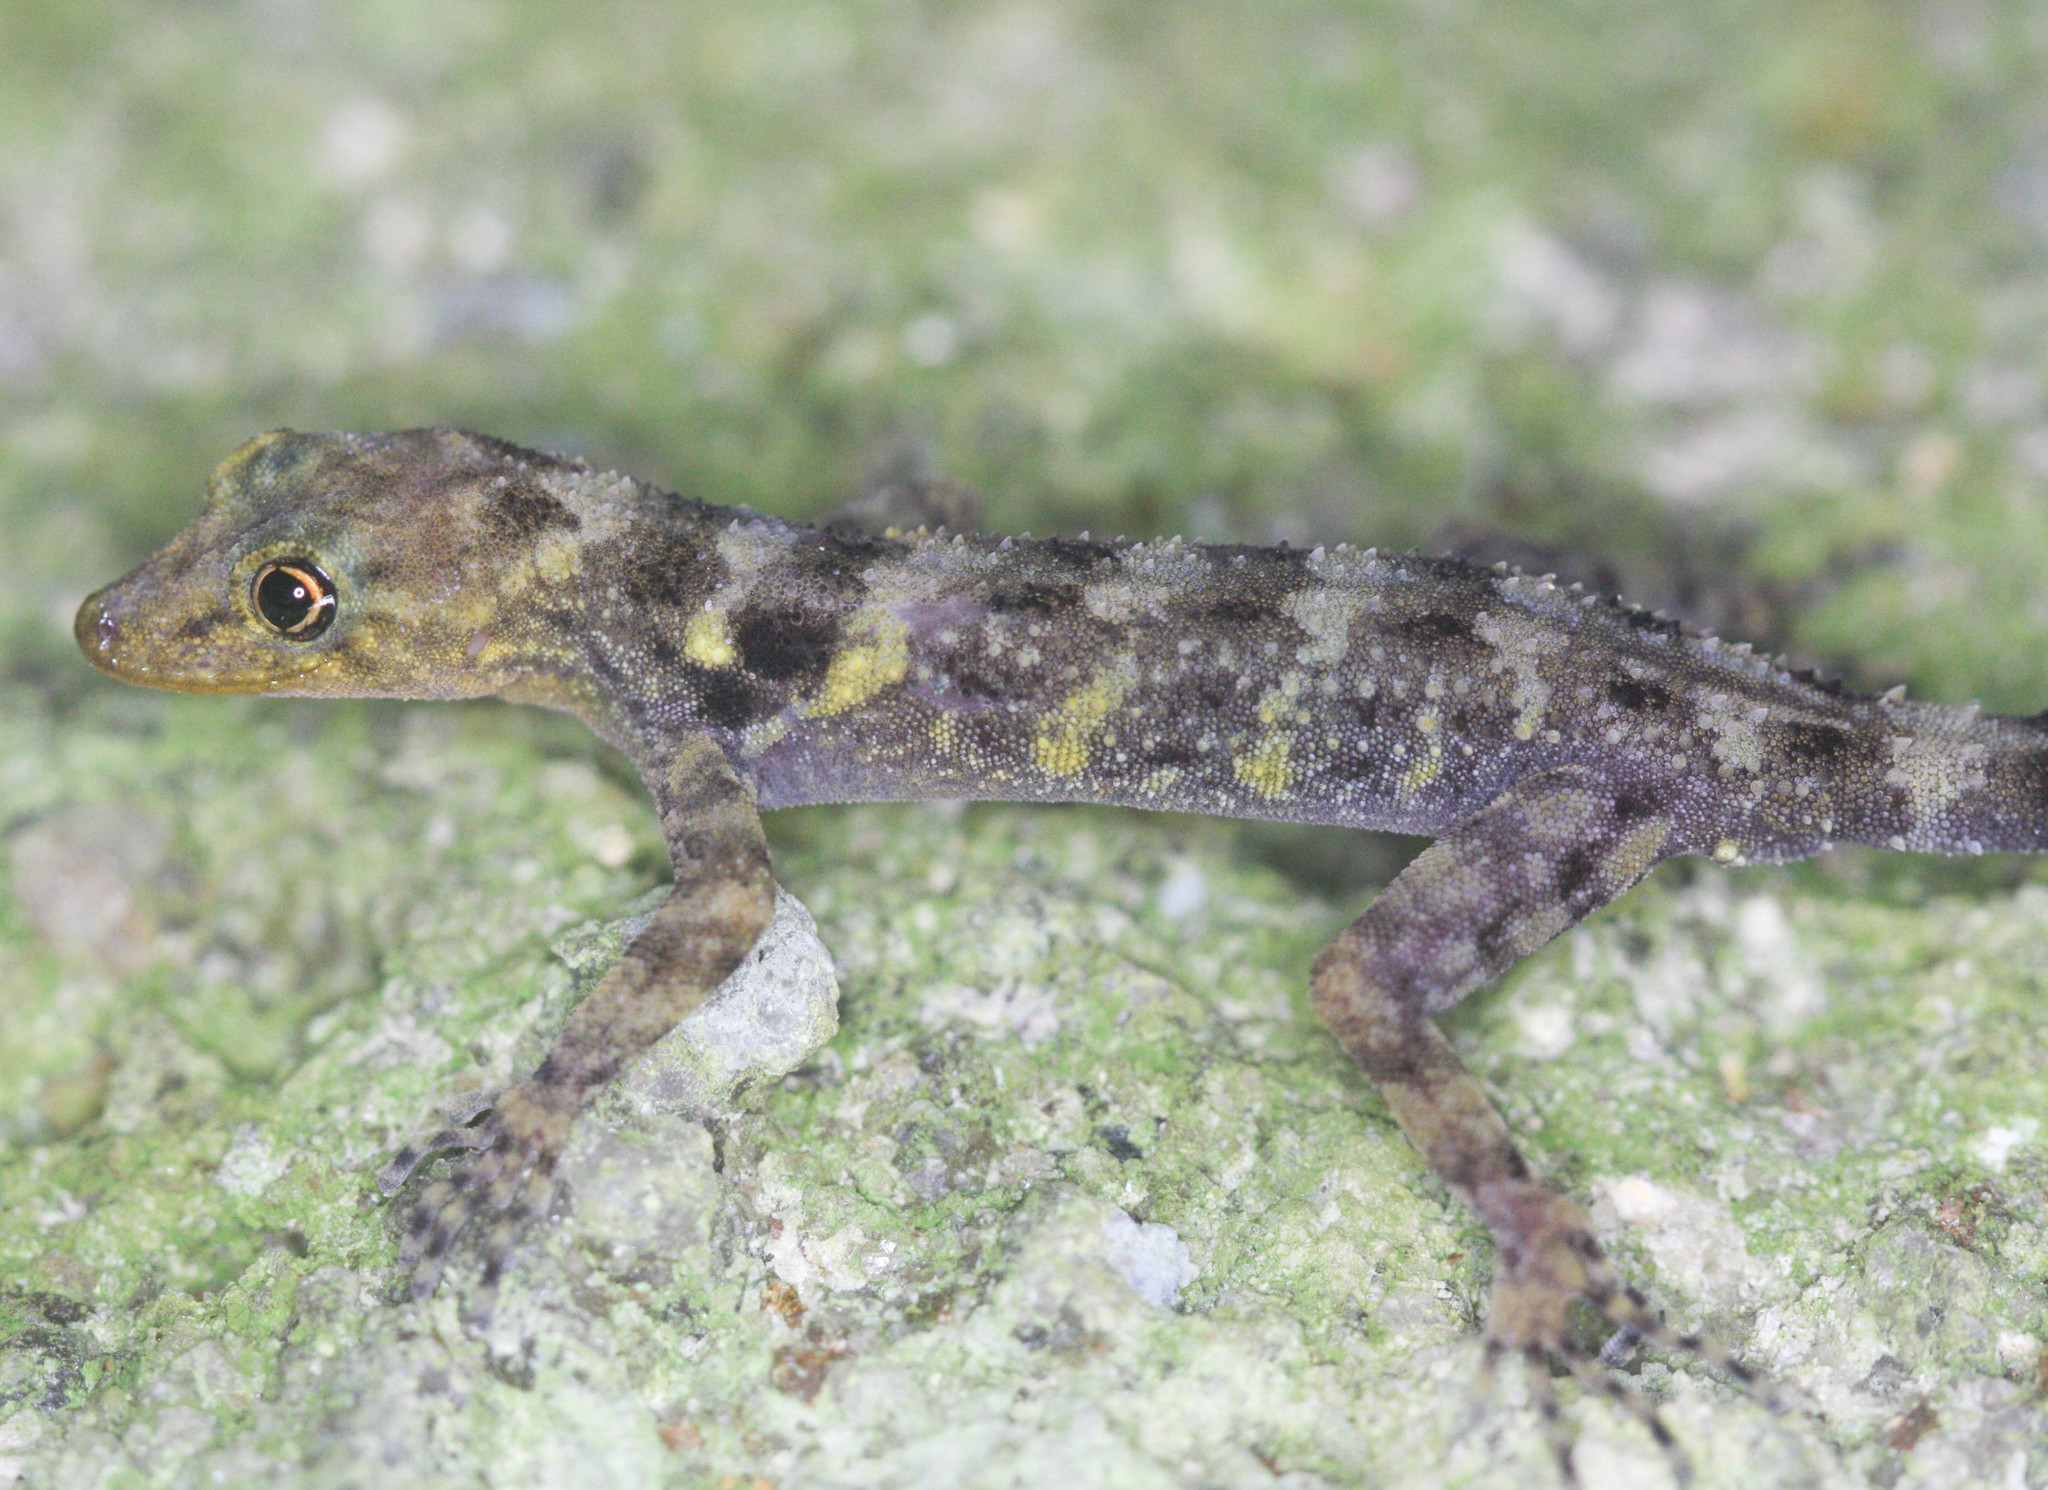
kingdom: Animalia
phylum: Chordata
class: Squamata
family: Gekkonidae
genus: Cnemaspis
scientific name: Cnemaspis affinis
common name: Pinang island rock gecko
